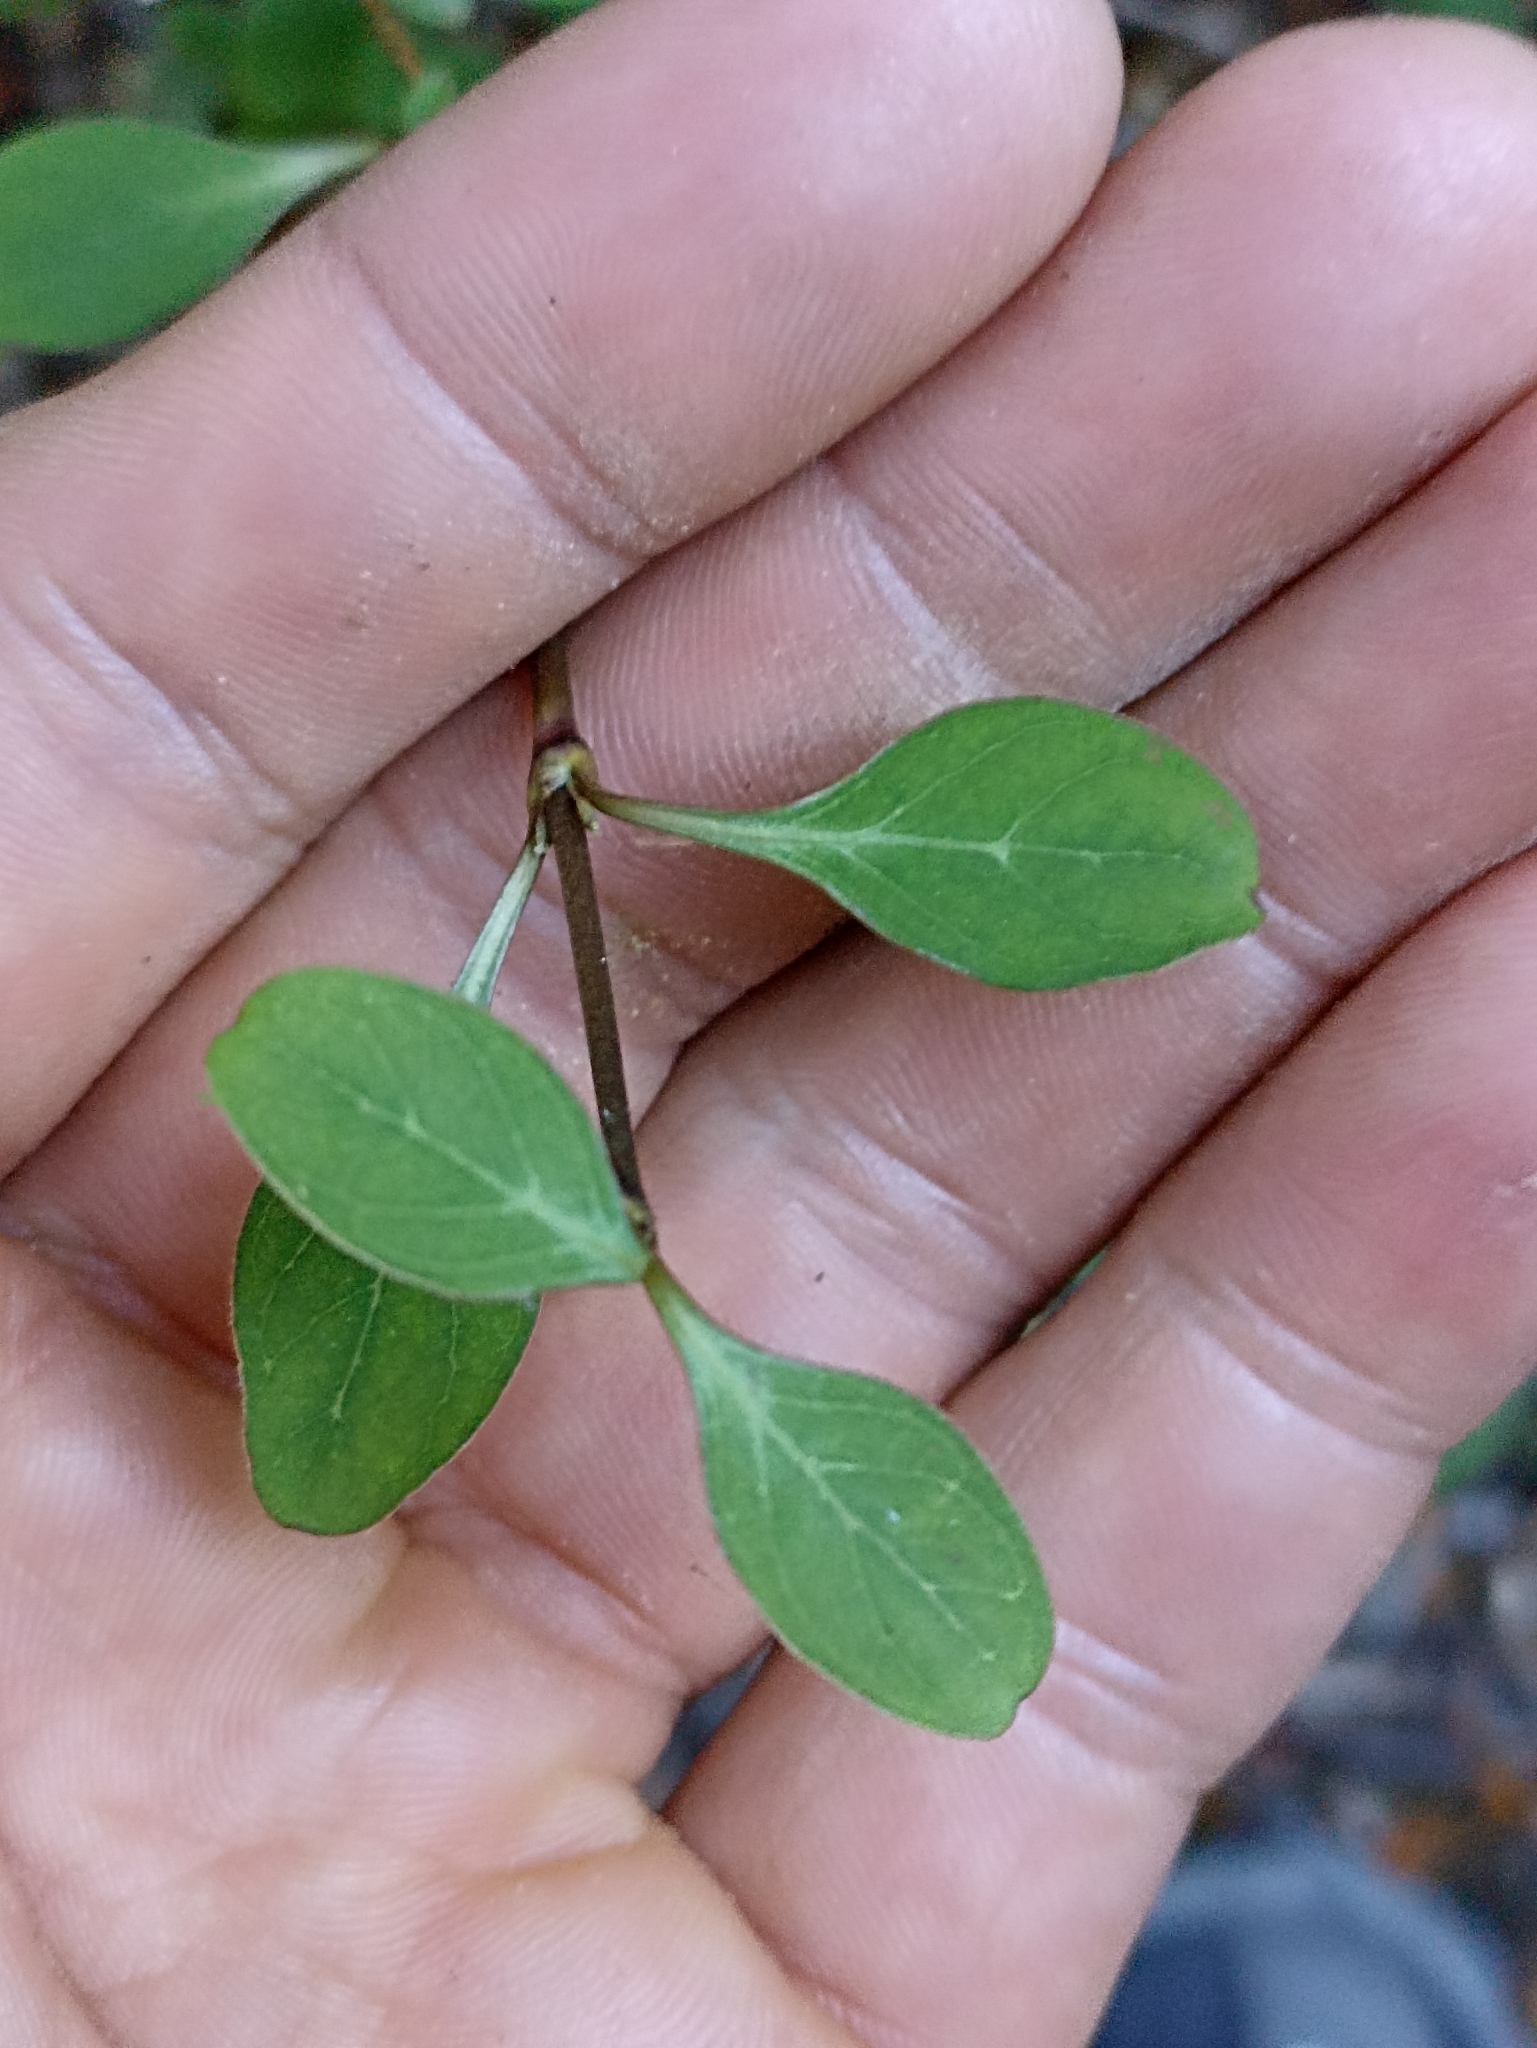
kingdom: Plantae
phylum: Tracheophyta
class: Magnoliopsida
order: Gentianales
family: Rubiaceae
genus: Coprosma
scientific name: Coprosma foetidissima
